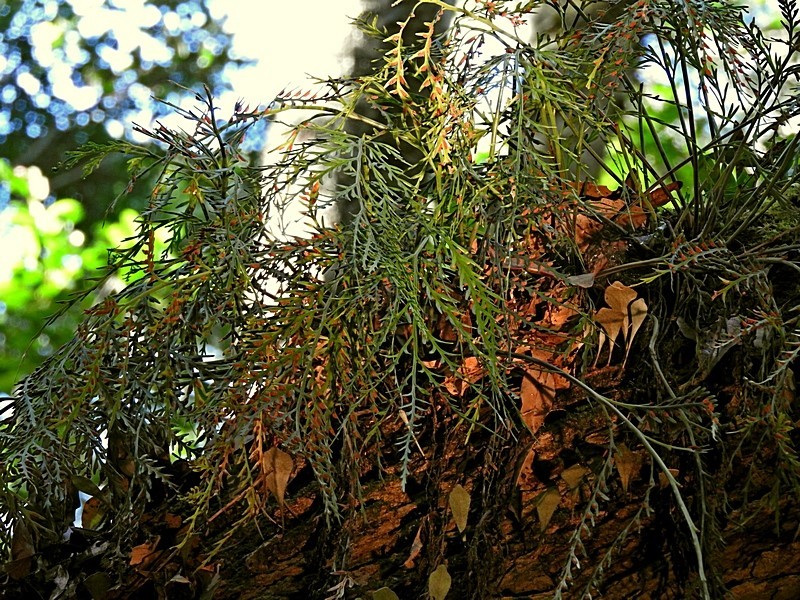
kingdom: Plantae
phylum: Tracheophyta
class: Polypodiopsida
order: Polypodiales
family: Aspleniaceae
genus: Asplenium
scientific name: Asplenium flaccidum
